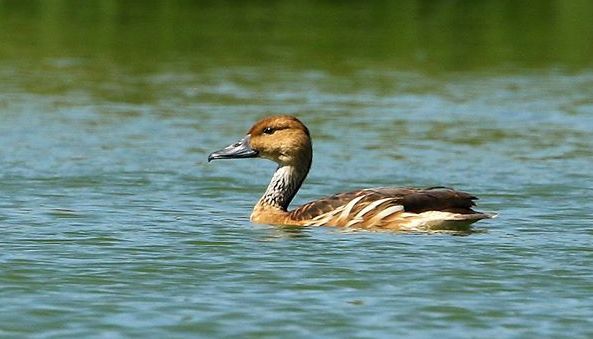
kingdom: Animalia
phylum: Chordata
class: Aves
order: Anseriformes
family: Anatidae
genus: Dendrocygna
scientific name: Dendrocygna bicolor
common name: Fulvous whistling duck
